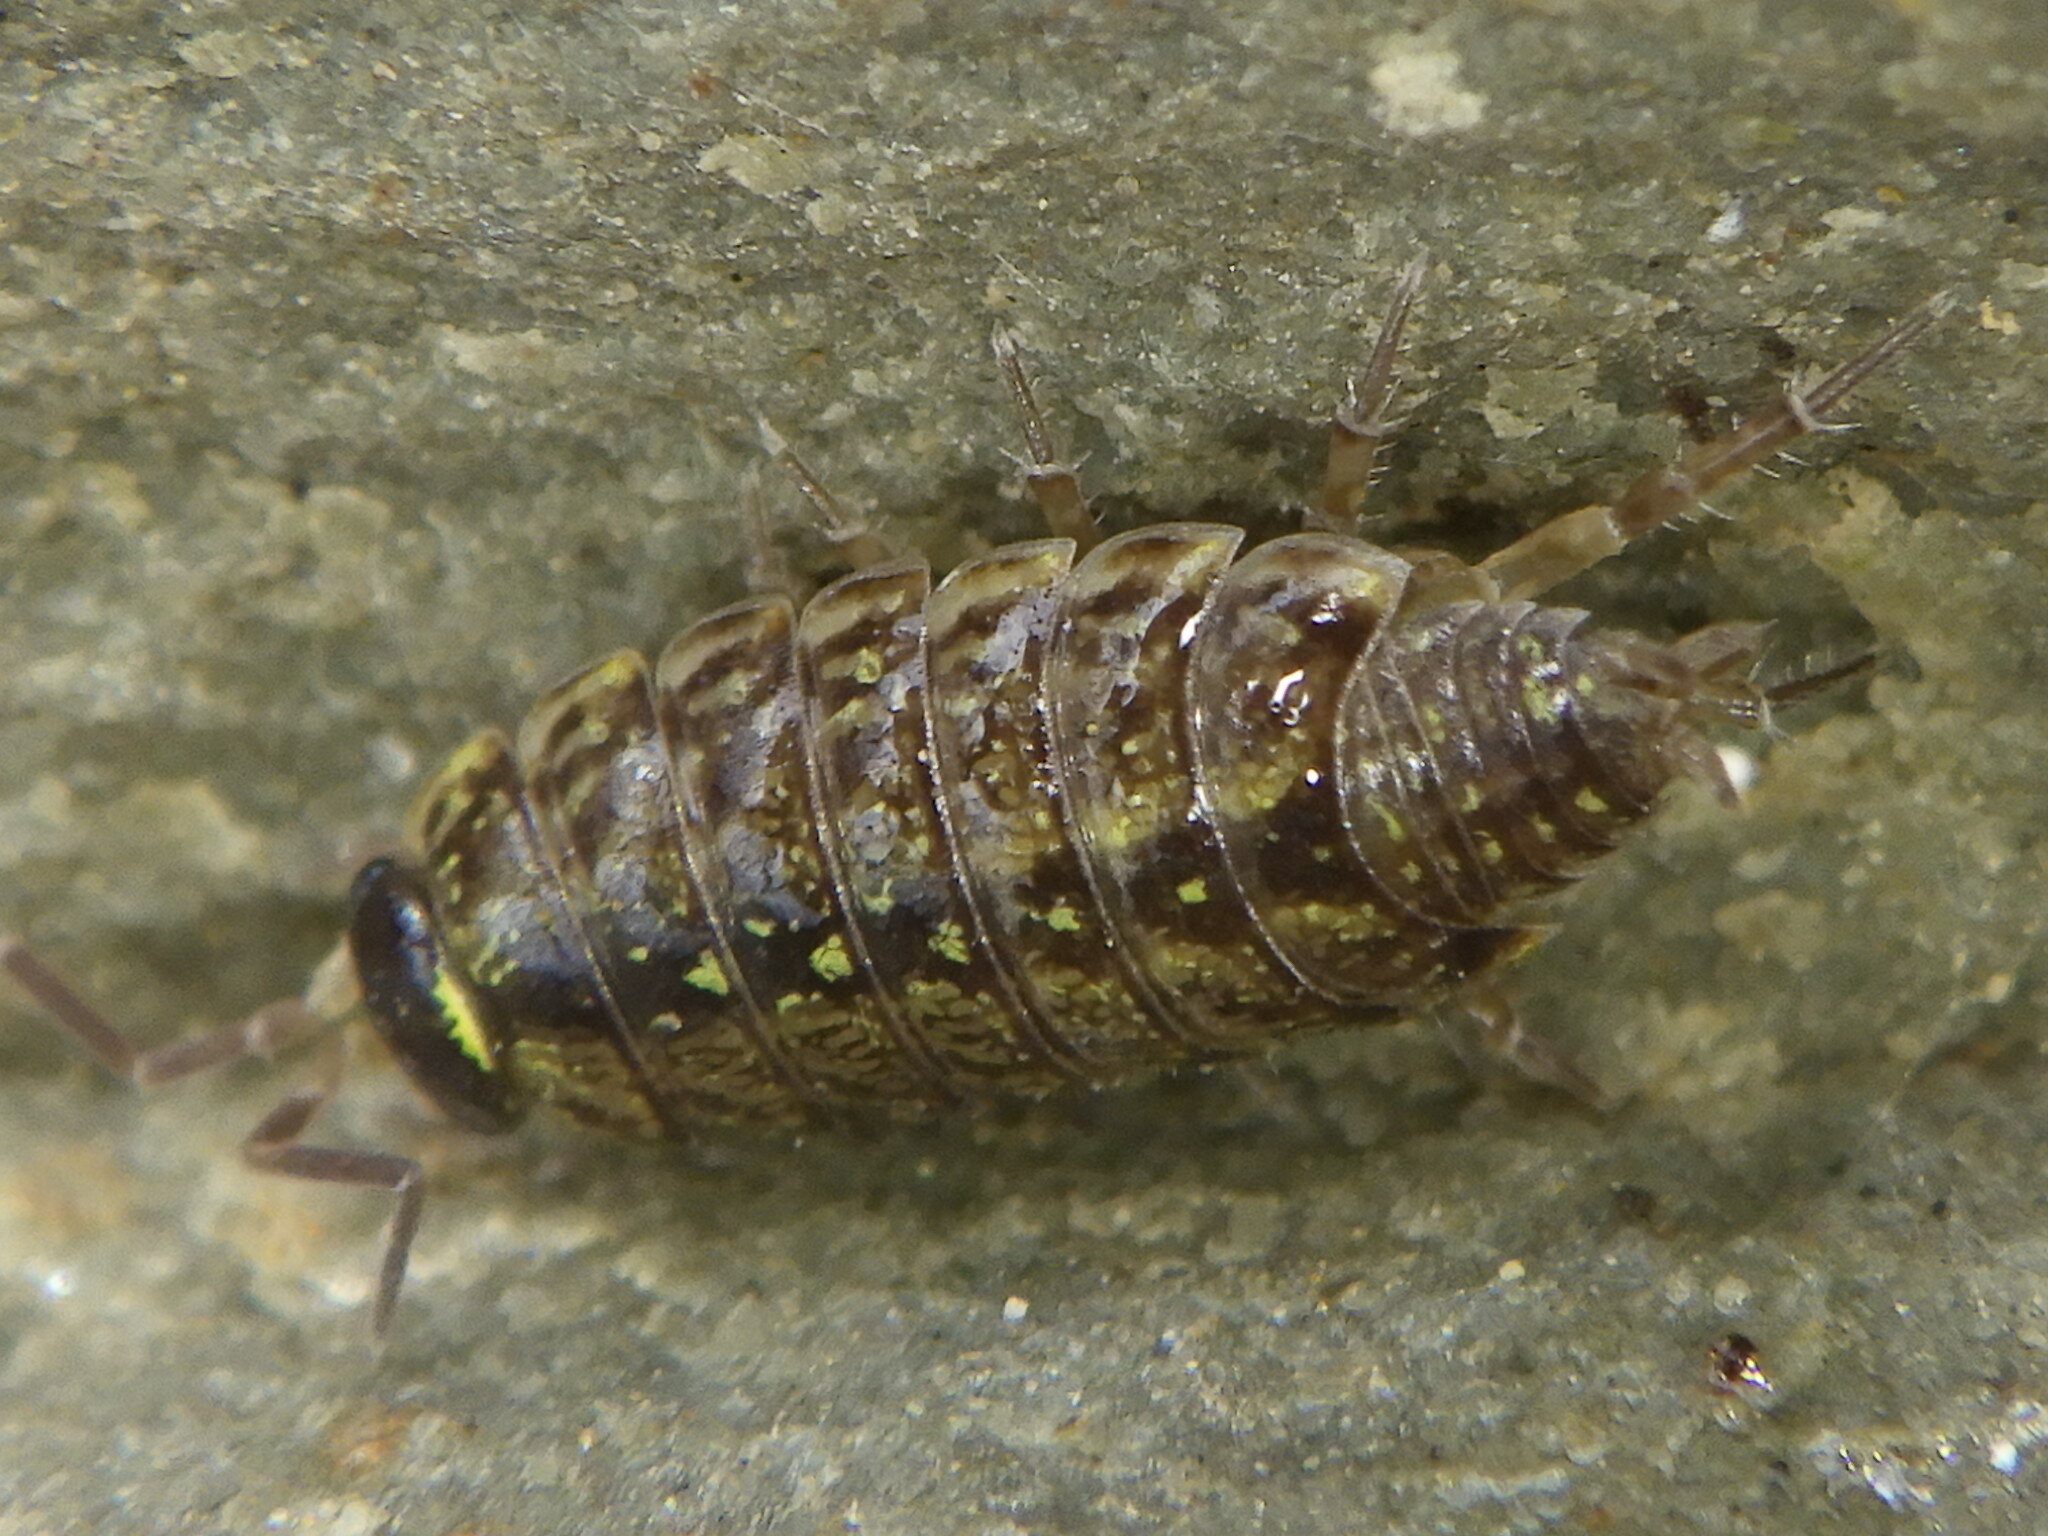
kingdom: Animalia
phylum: Arthropoda
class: Malacostraca
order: Isopoda
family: Philosciidae
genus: Philoscia
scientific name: Philoscia muscorum
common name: Common striped woodlouse
